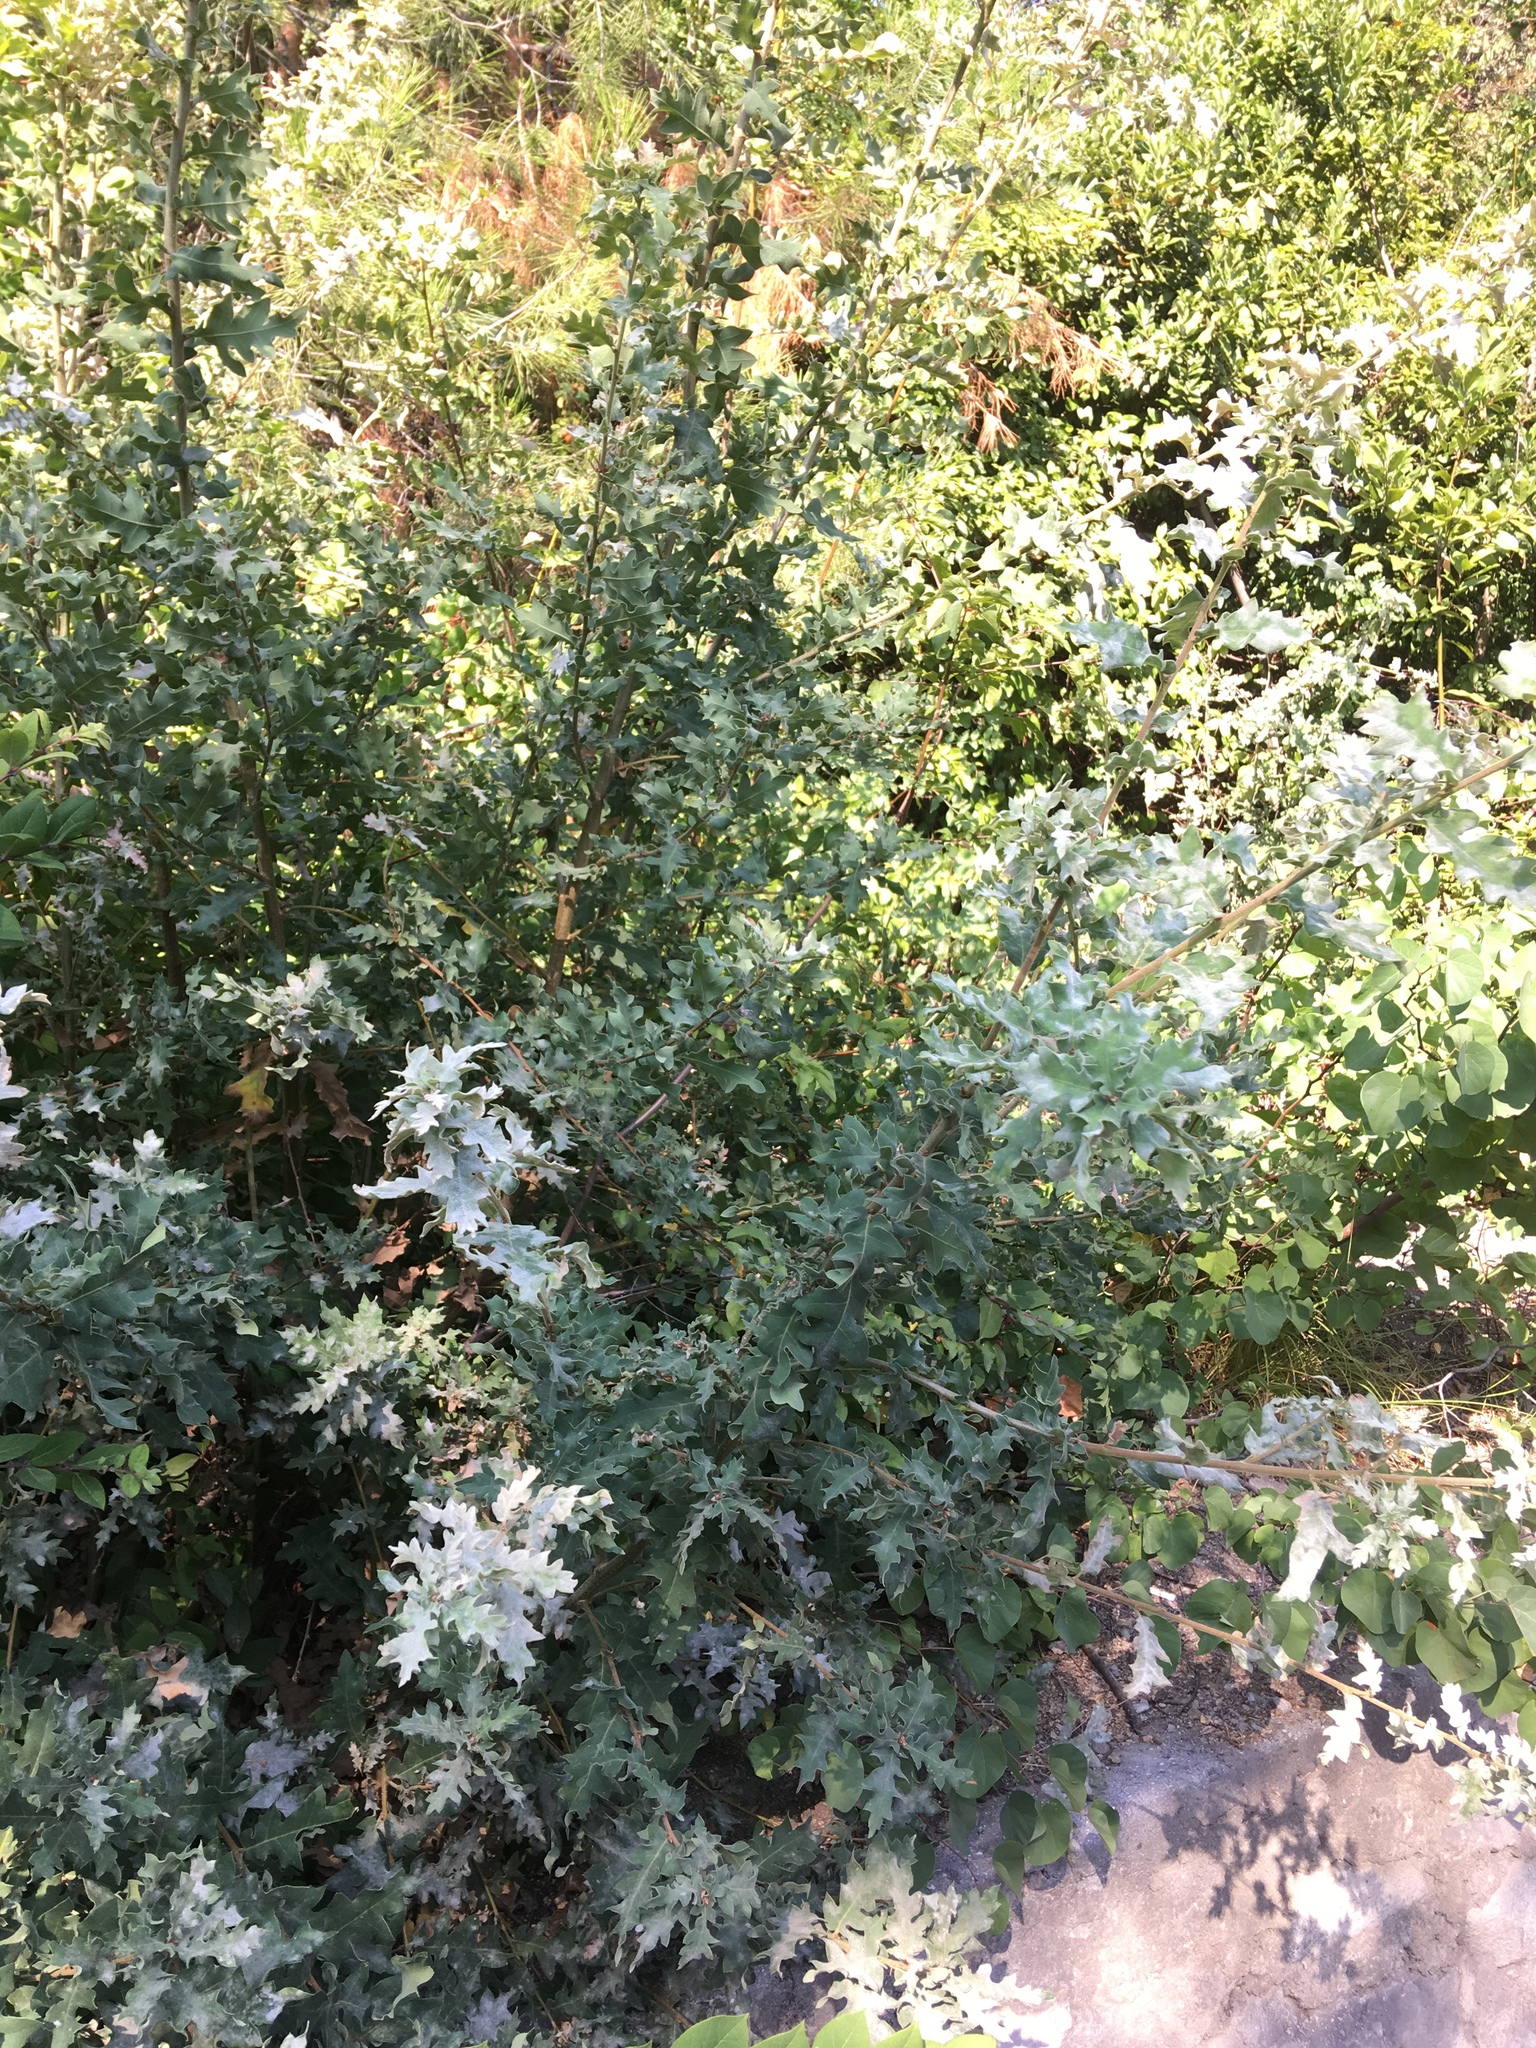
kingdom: Plantae
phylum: Tracheophyta
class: Magnoliopsida
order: Fagales
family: Fagaceae
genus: Quercus
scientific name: Quercus pubescens
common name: Downy oak
